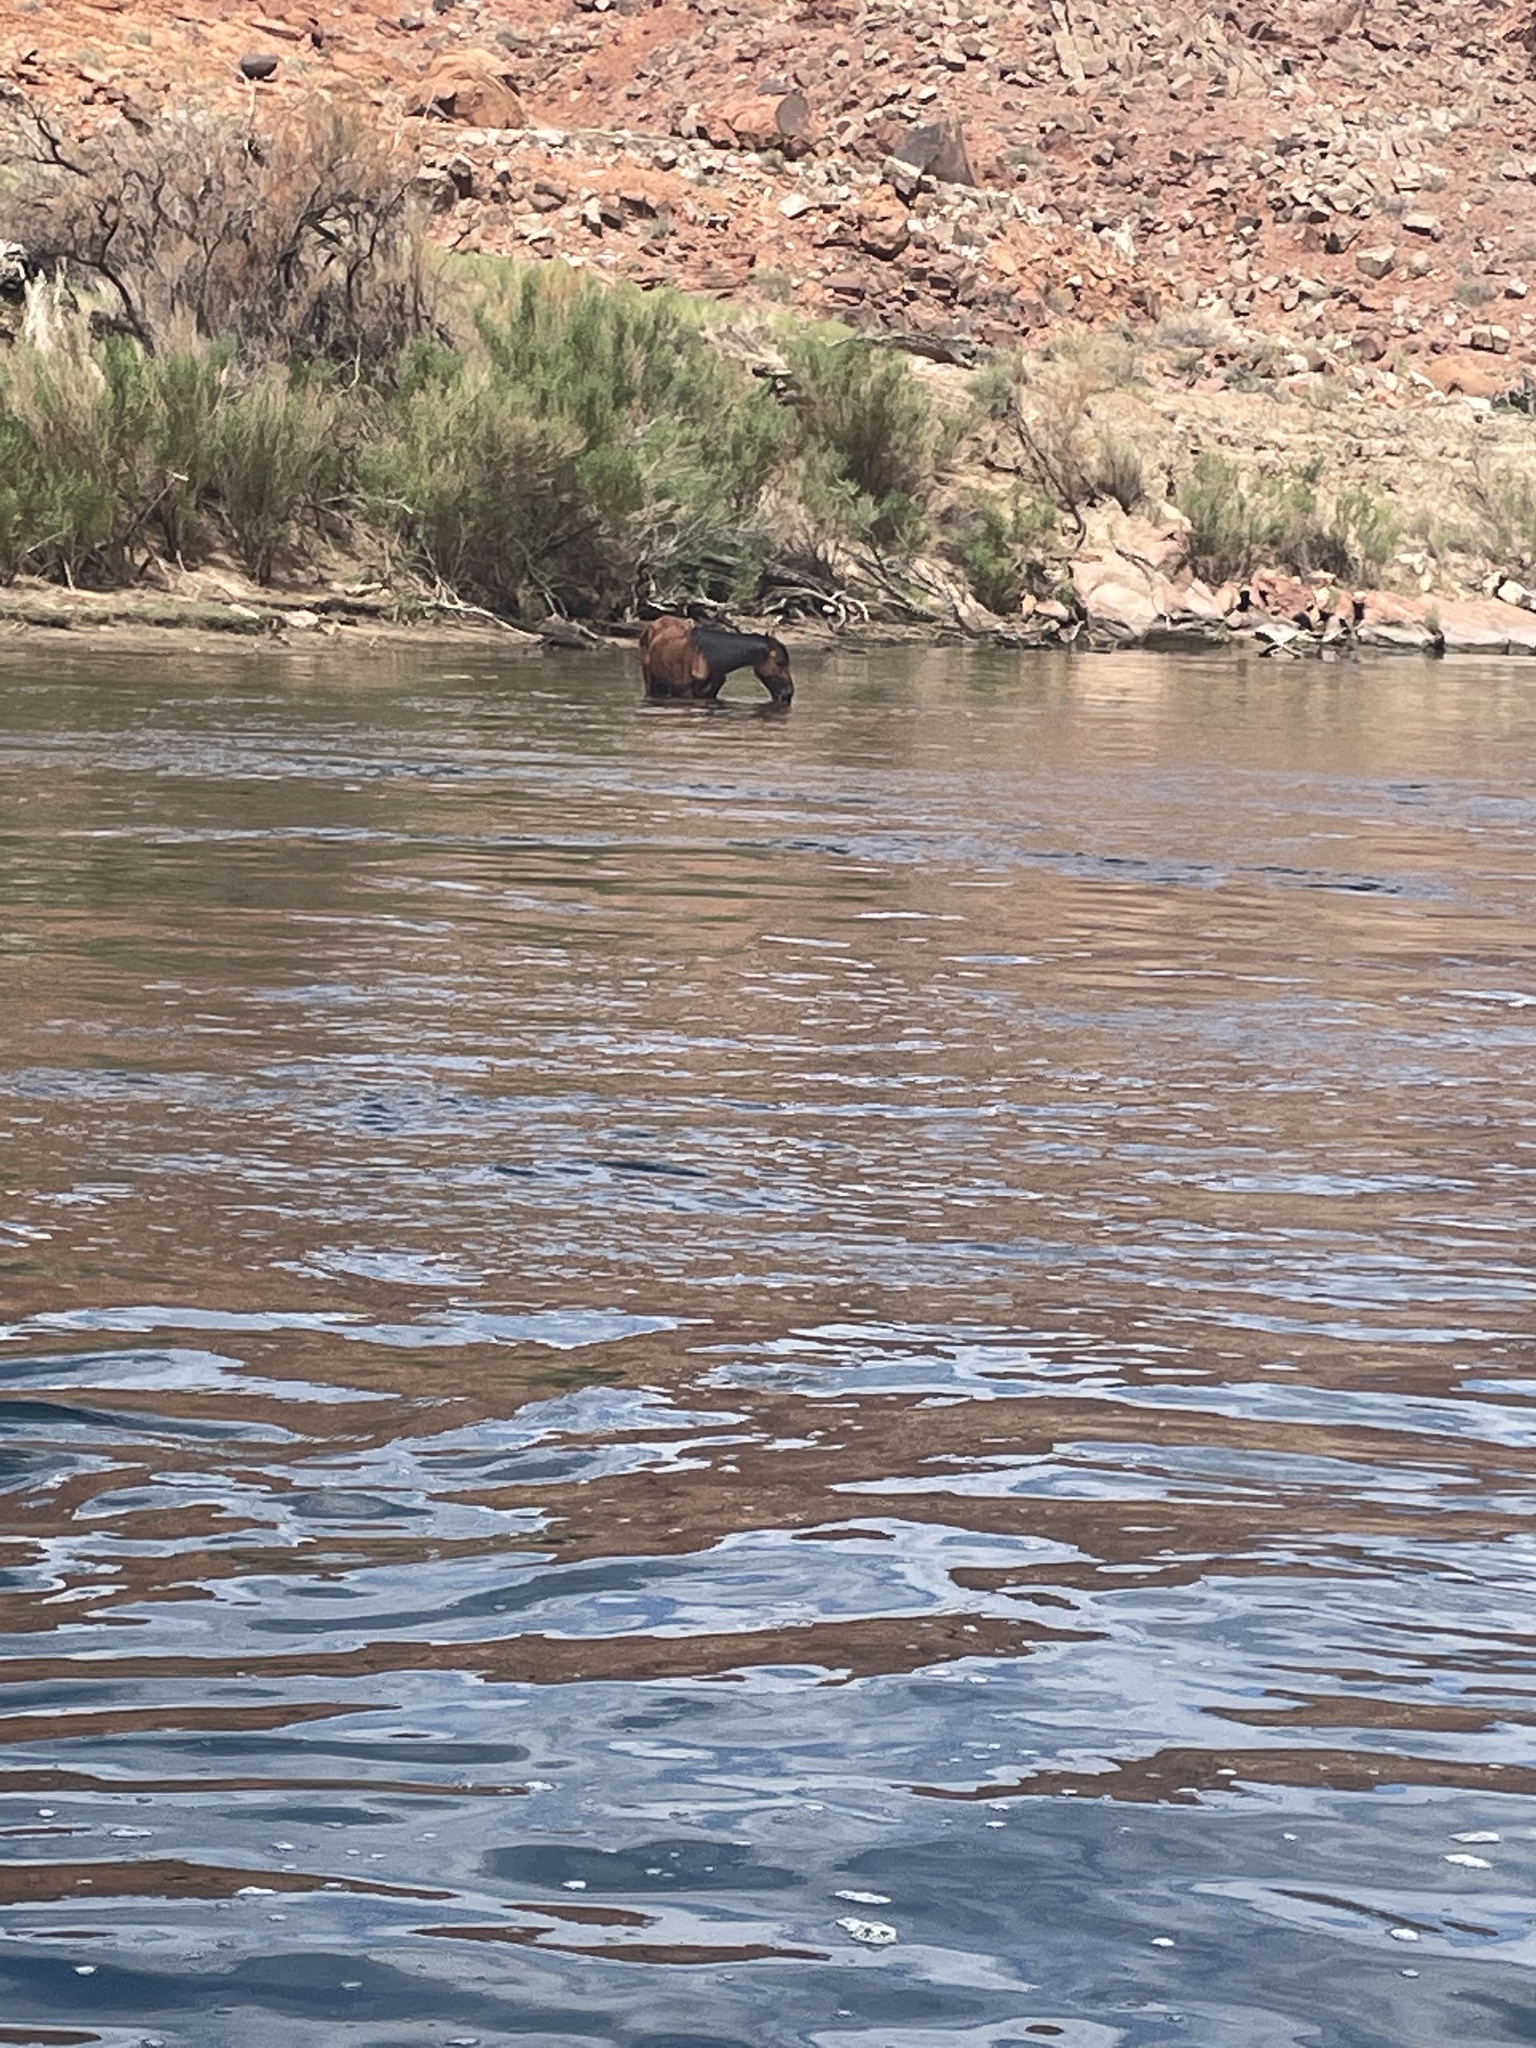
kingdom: Animalia
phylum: Chordata
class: Mammalia
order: Perissodactyla
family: Equidae
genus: Equus
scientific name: Equus caballus
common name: Horse
